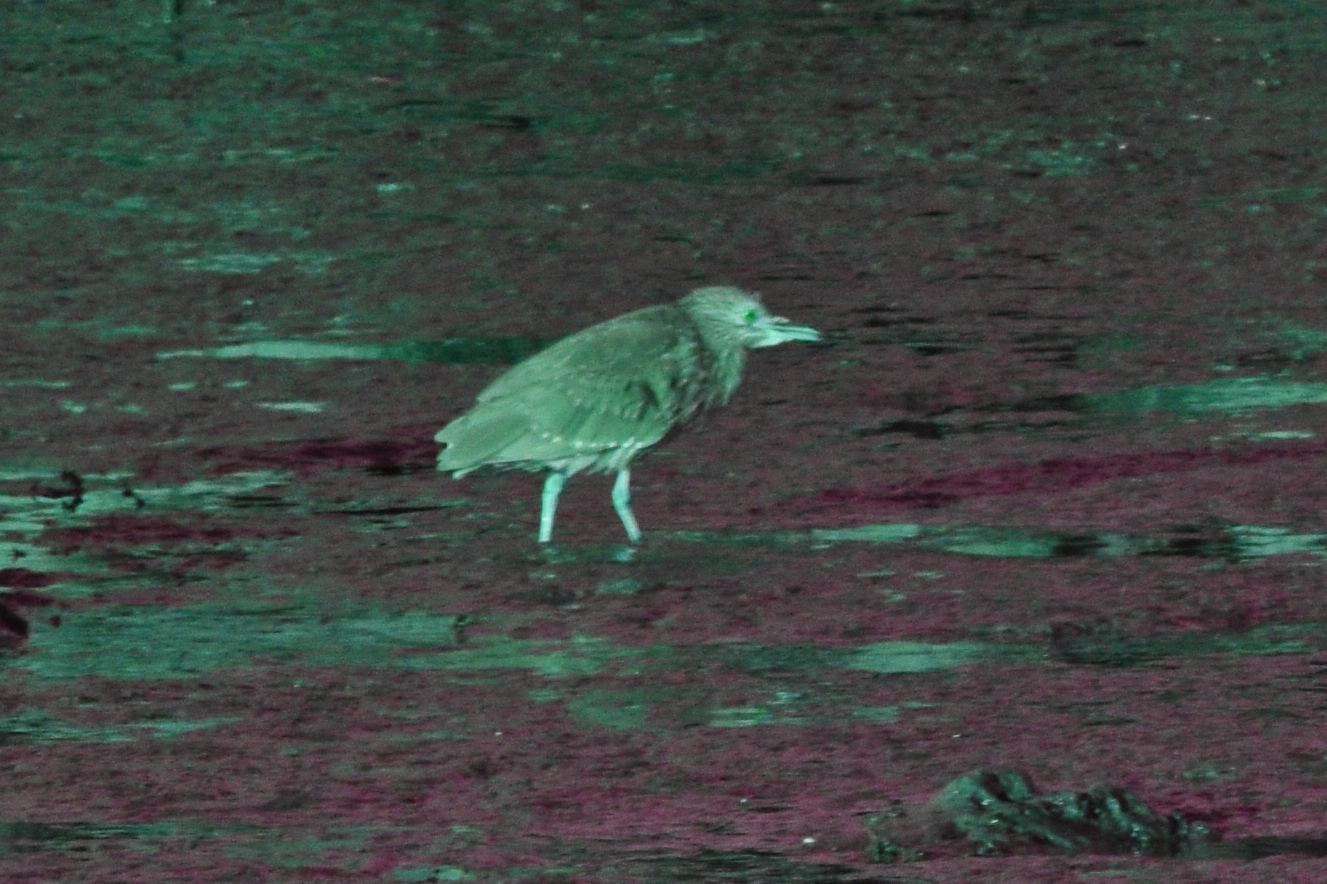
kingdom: Animalia
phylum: Chordata
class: Aves
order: Pelecaniformes
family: Ardeidae
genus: Nycticorax
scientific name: Nycticorax nycticorax
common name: Black-crowned night heron
